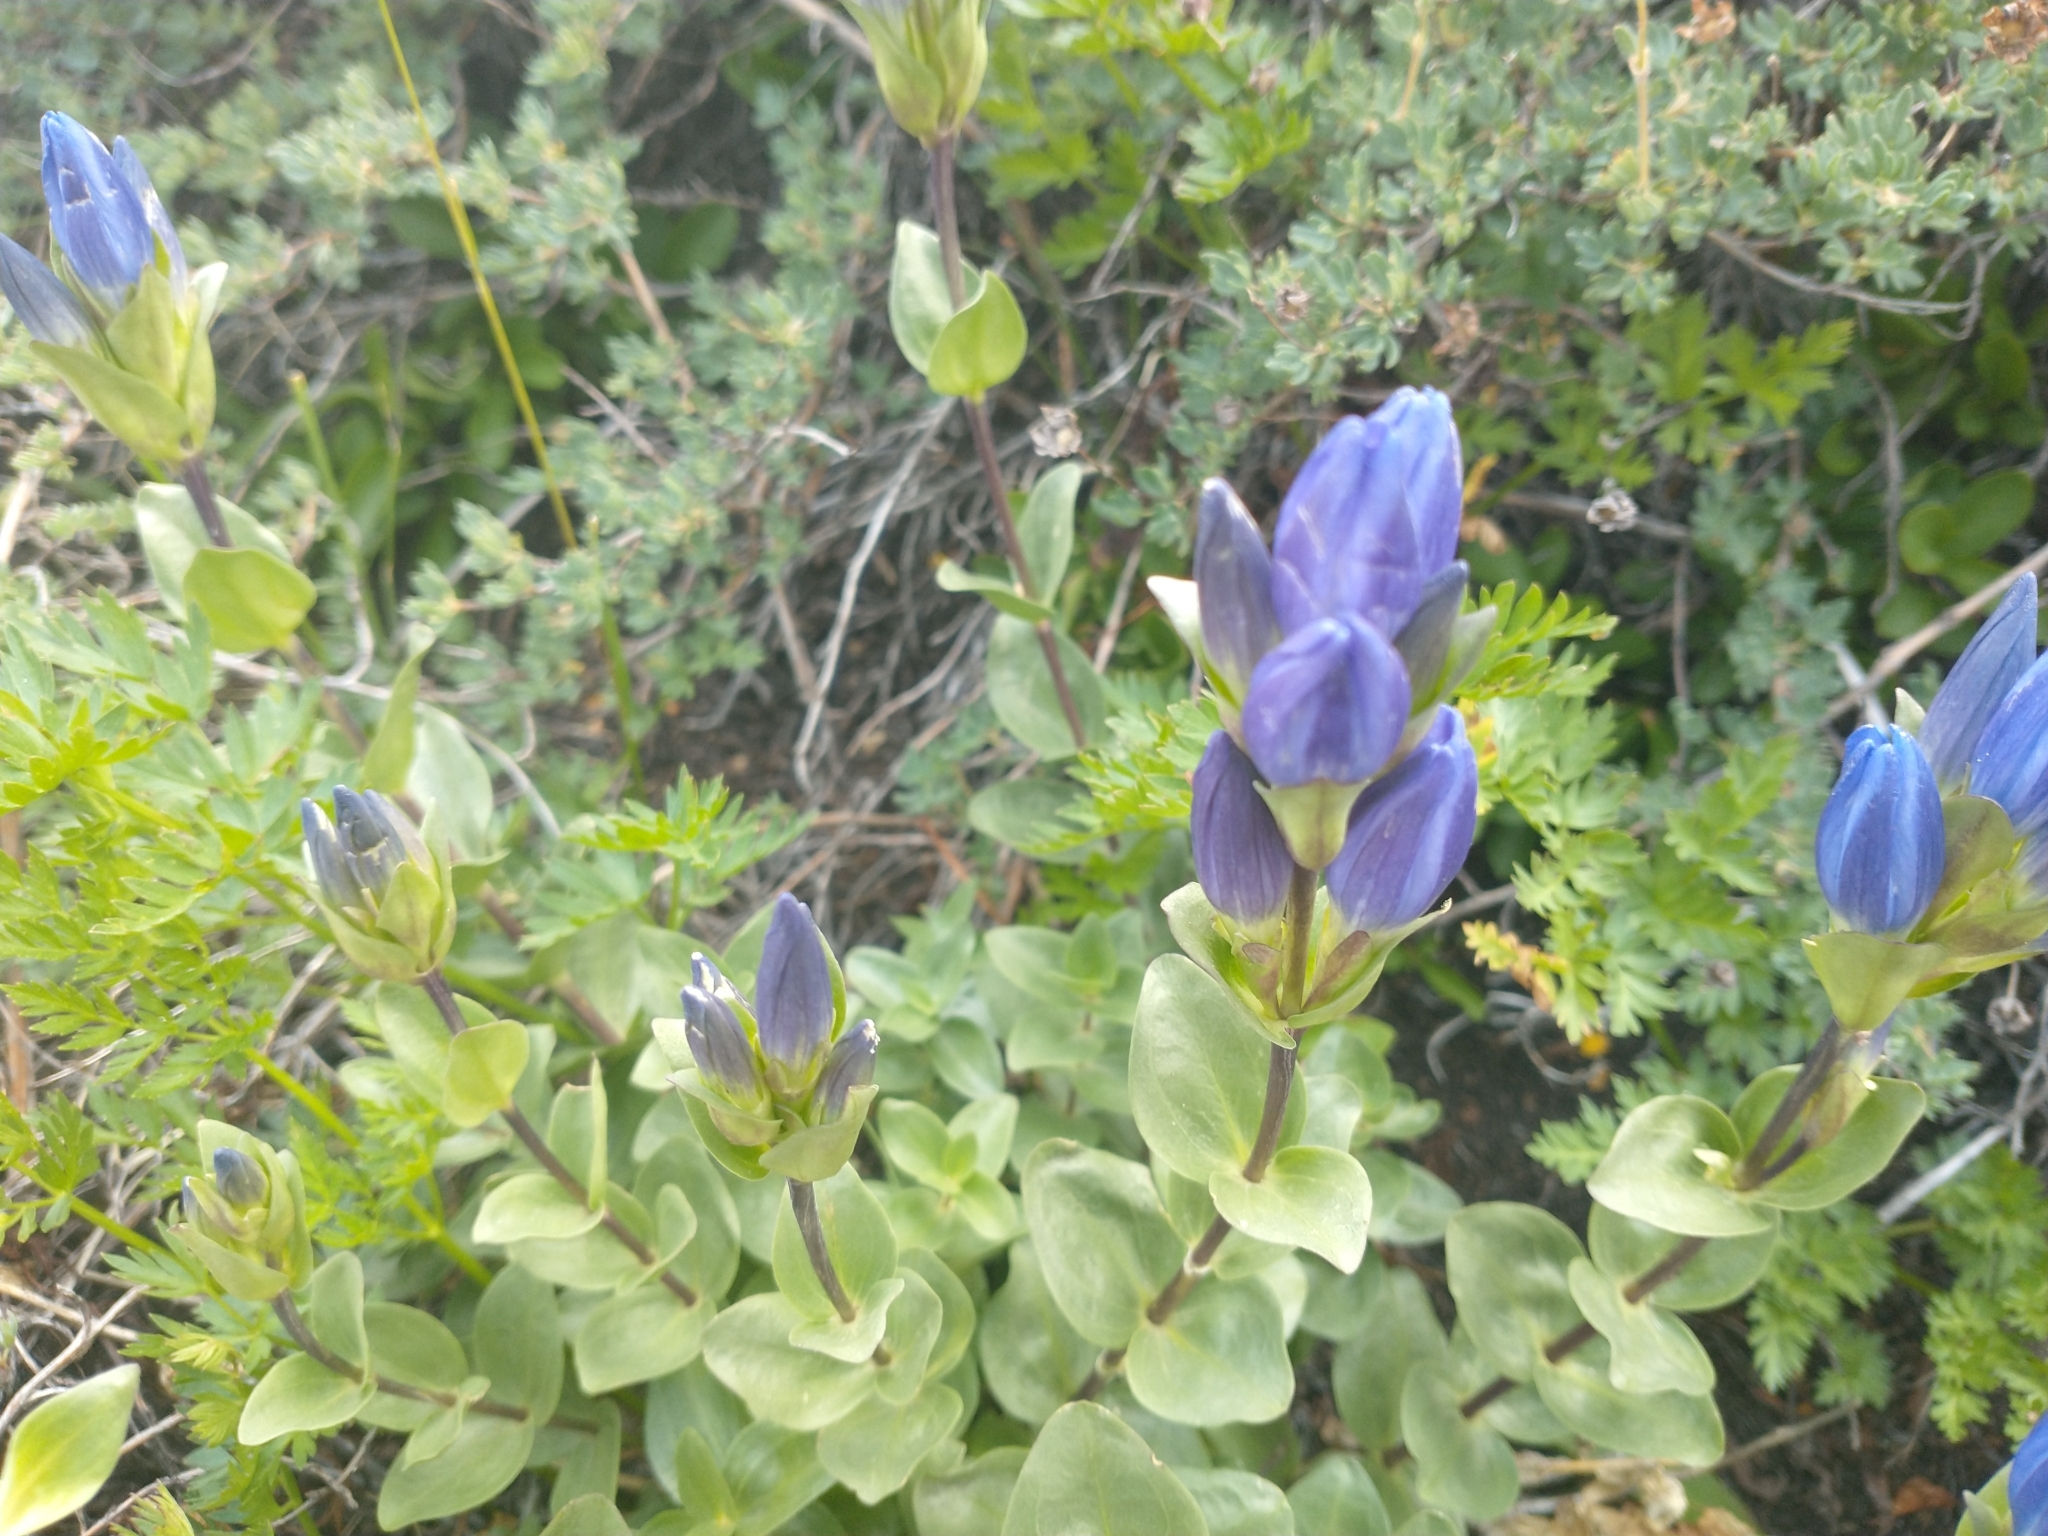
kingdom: Plantae
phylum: Tracheophyta
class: Magnoliopsida
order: Gentianales
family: Gentianaceae
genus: Gentiana
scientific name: Gentiana affinis
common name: Rocky mountain gentian
